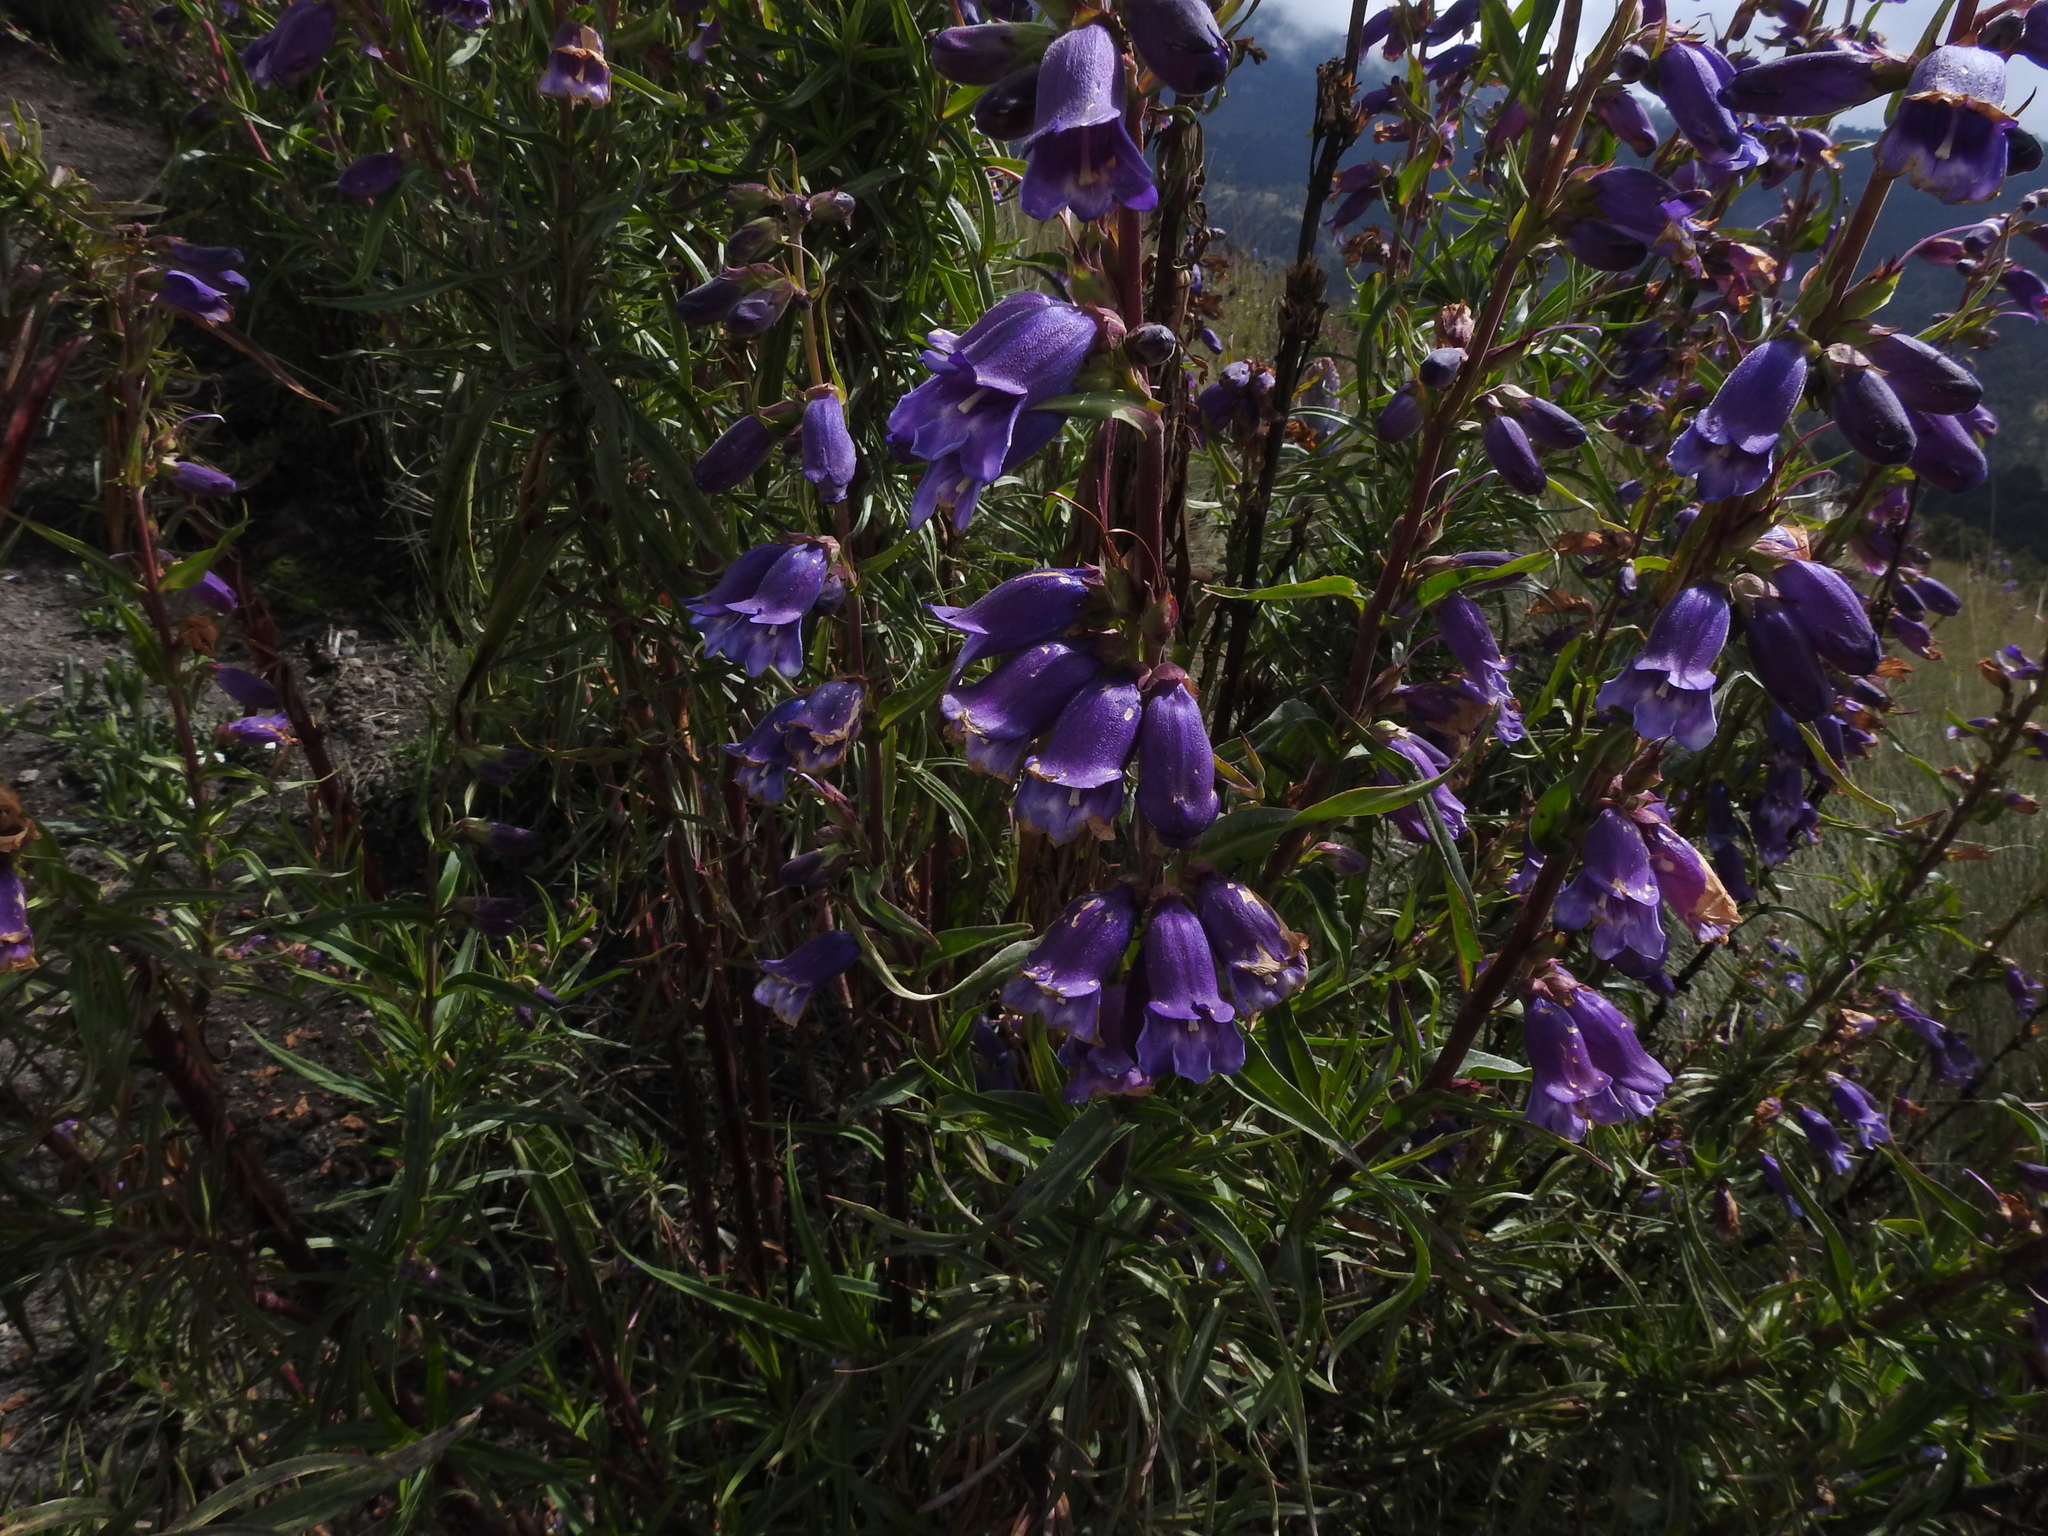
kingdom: Plantae
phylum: Tracheophyta
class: Magnoliopsida
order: Lamiales
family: Plantaginaceae
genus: Penstemon
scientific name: Penstemon gentianoides
